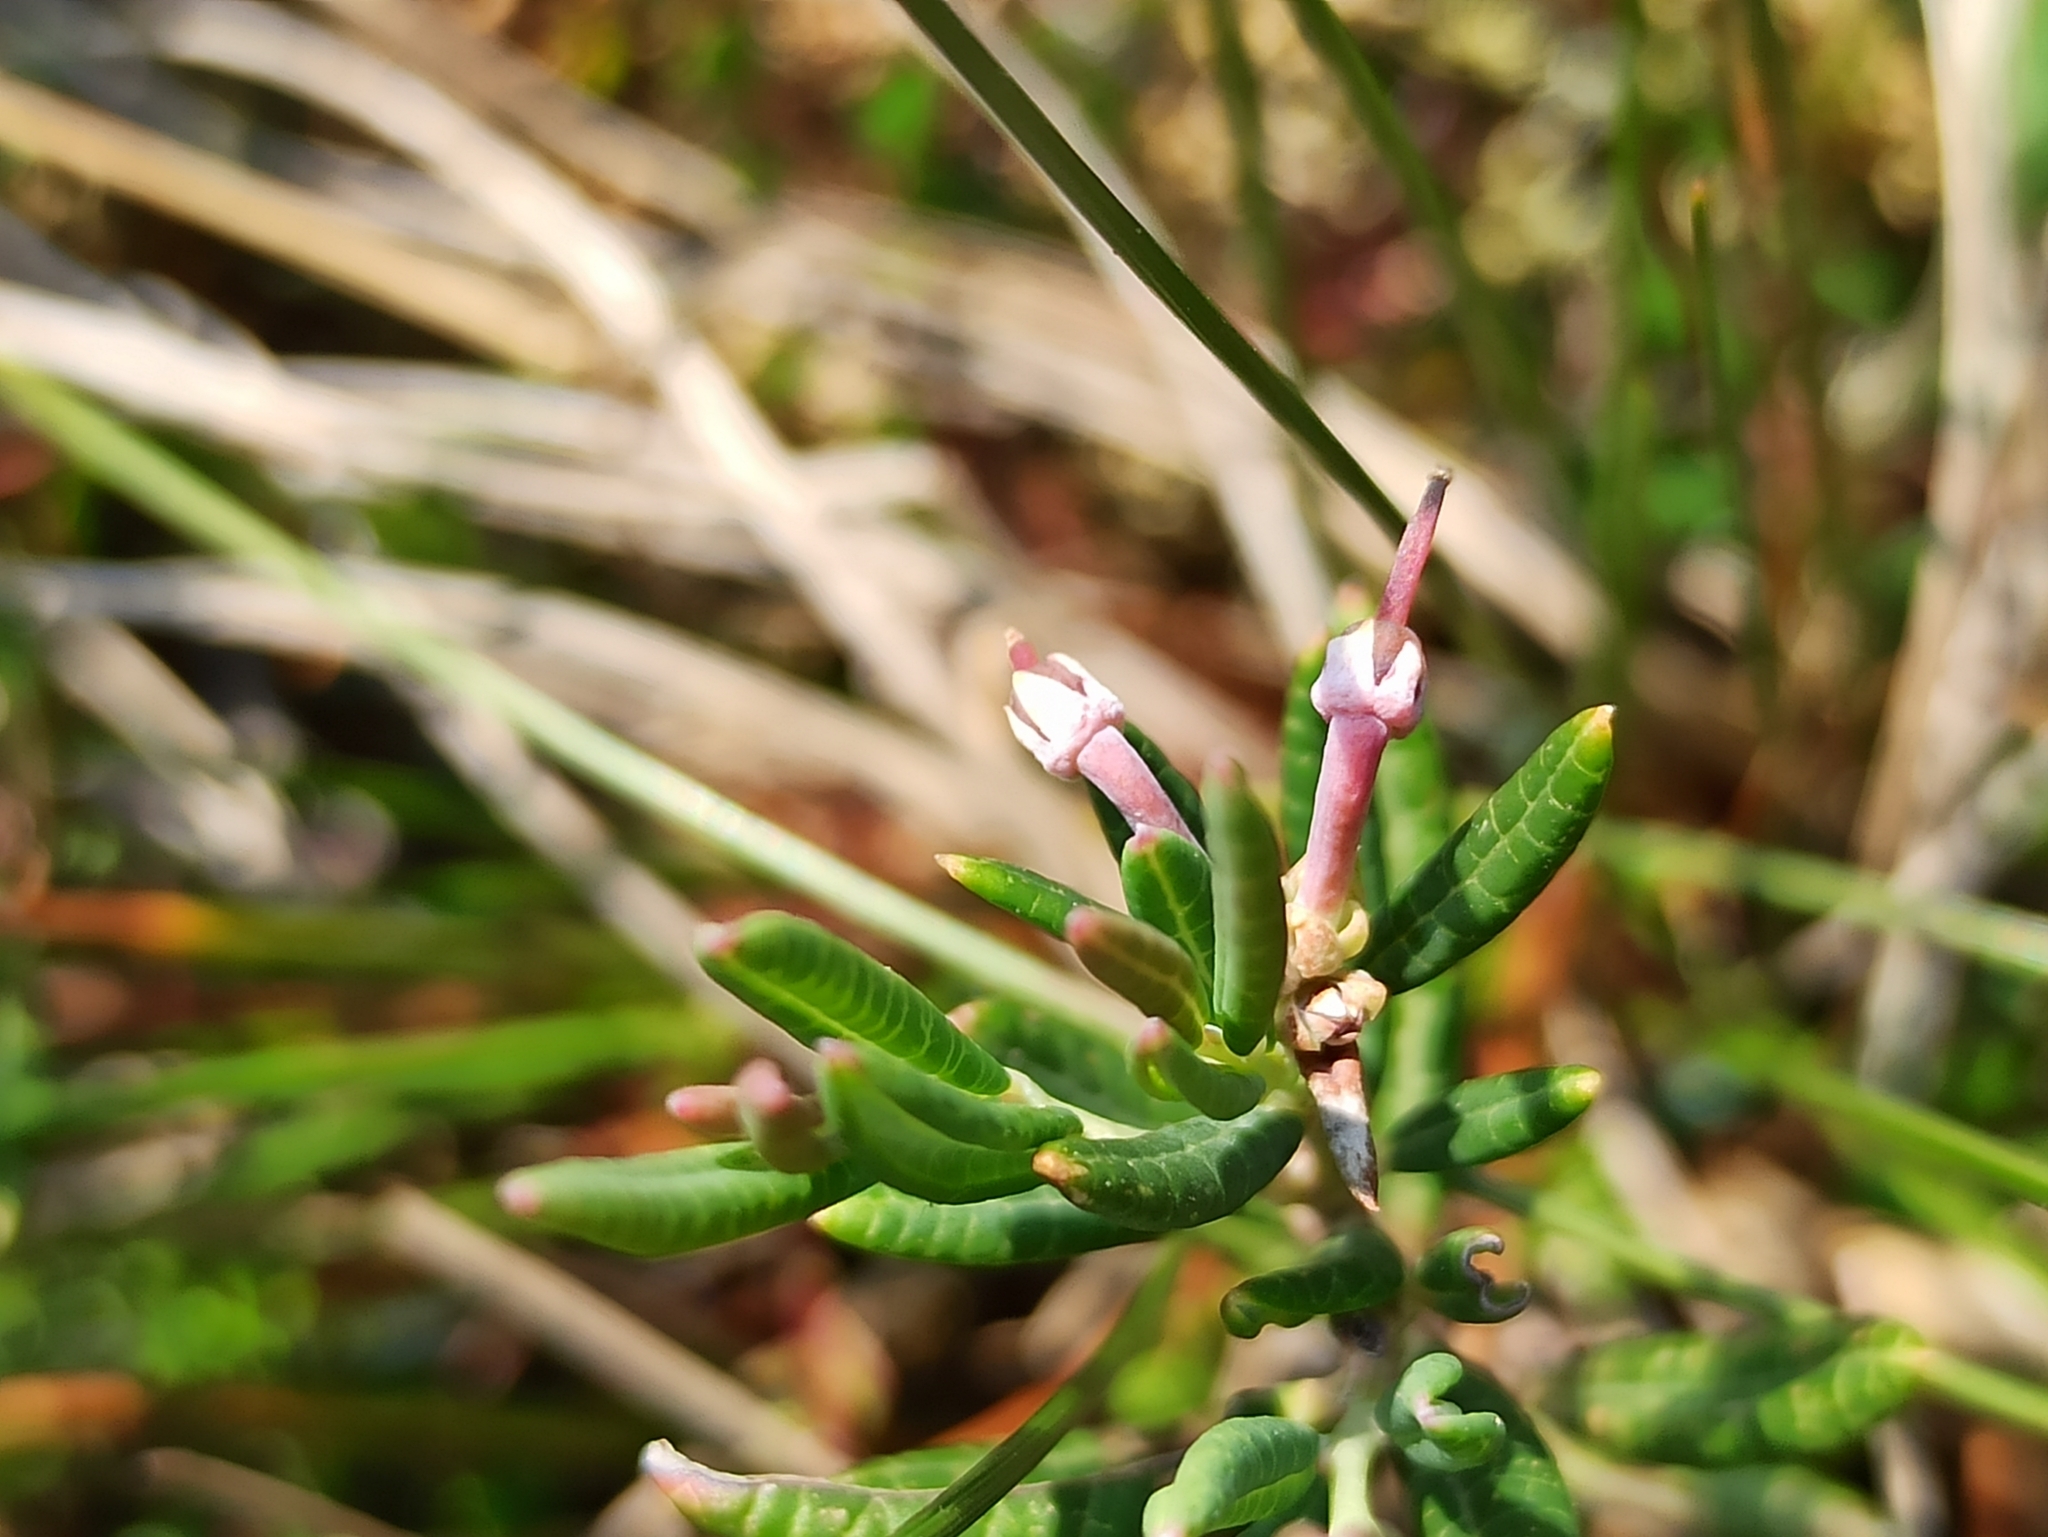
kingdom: Plantae
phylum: Tracheophyta
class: Magnoliopsida
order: Ericales
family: Ericaceae
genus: Andromeda
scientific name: Andromeda polifolia
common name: Bog-rosemary
